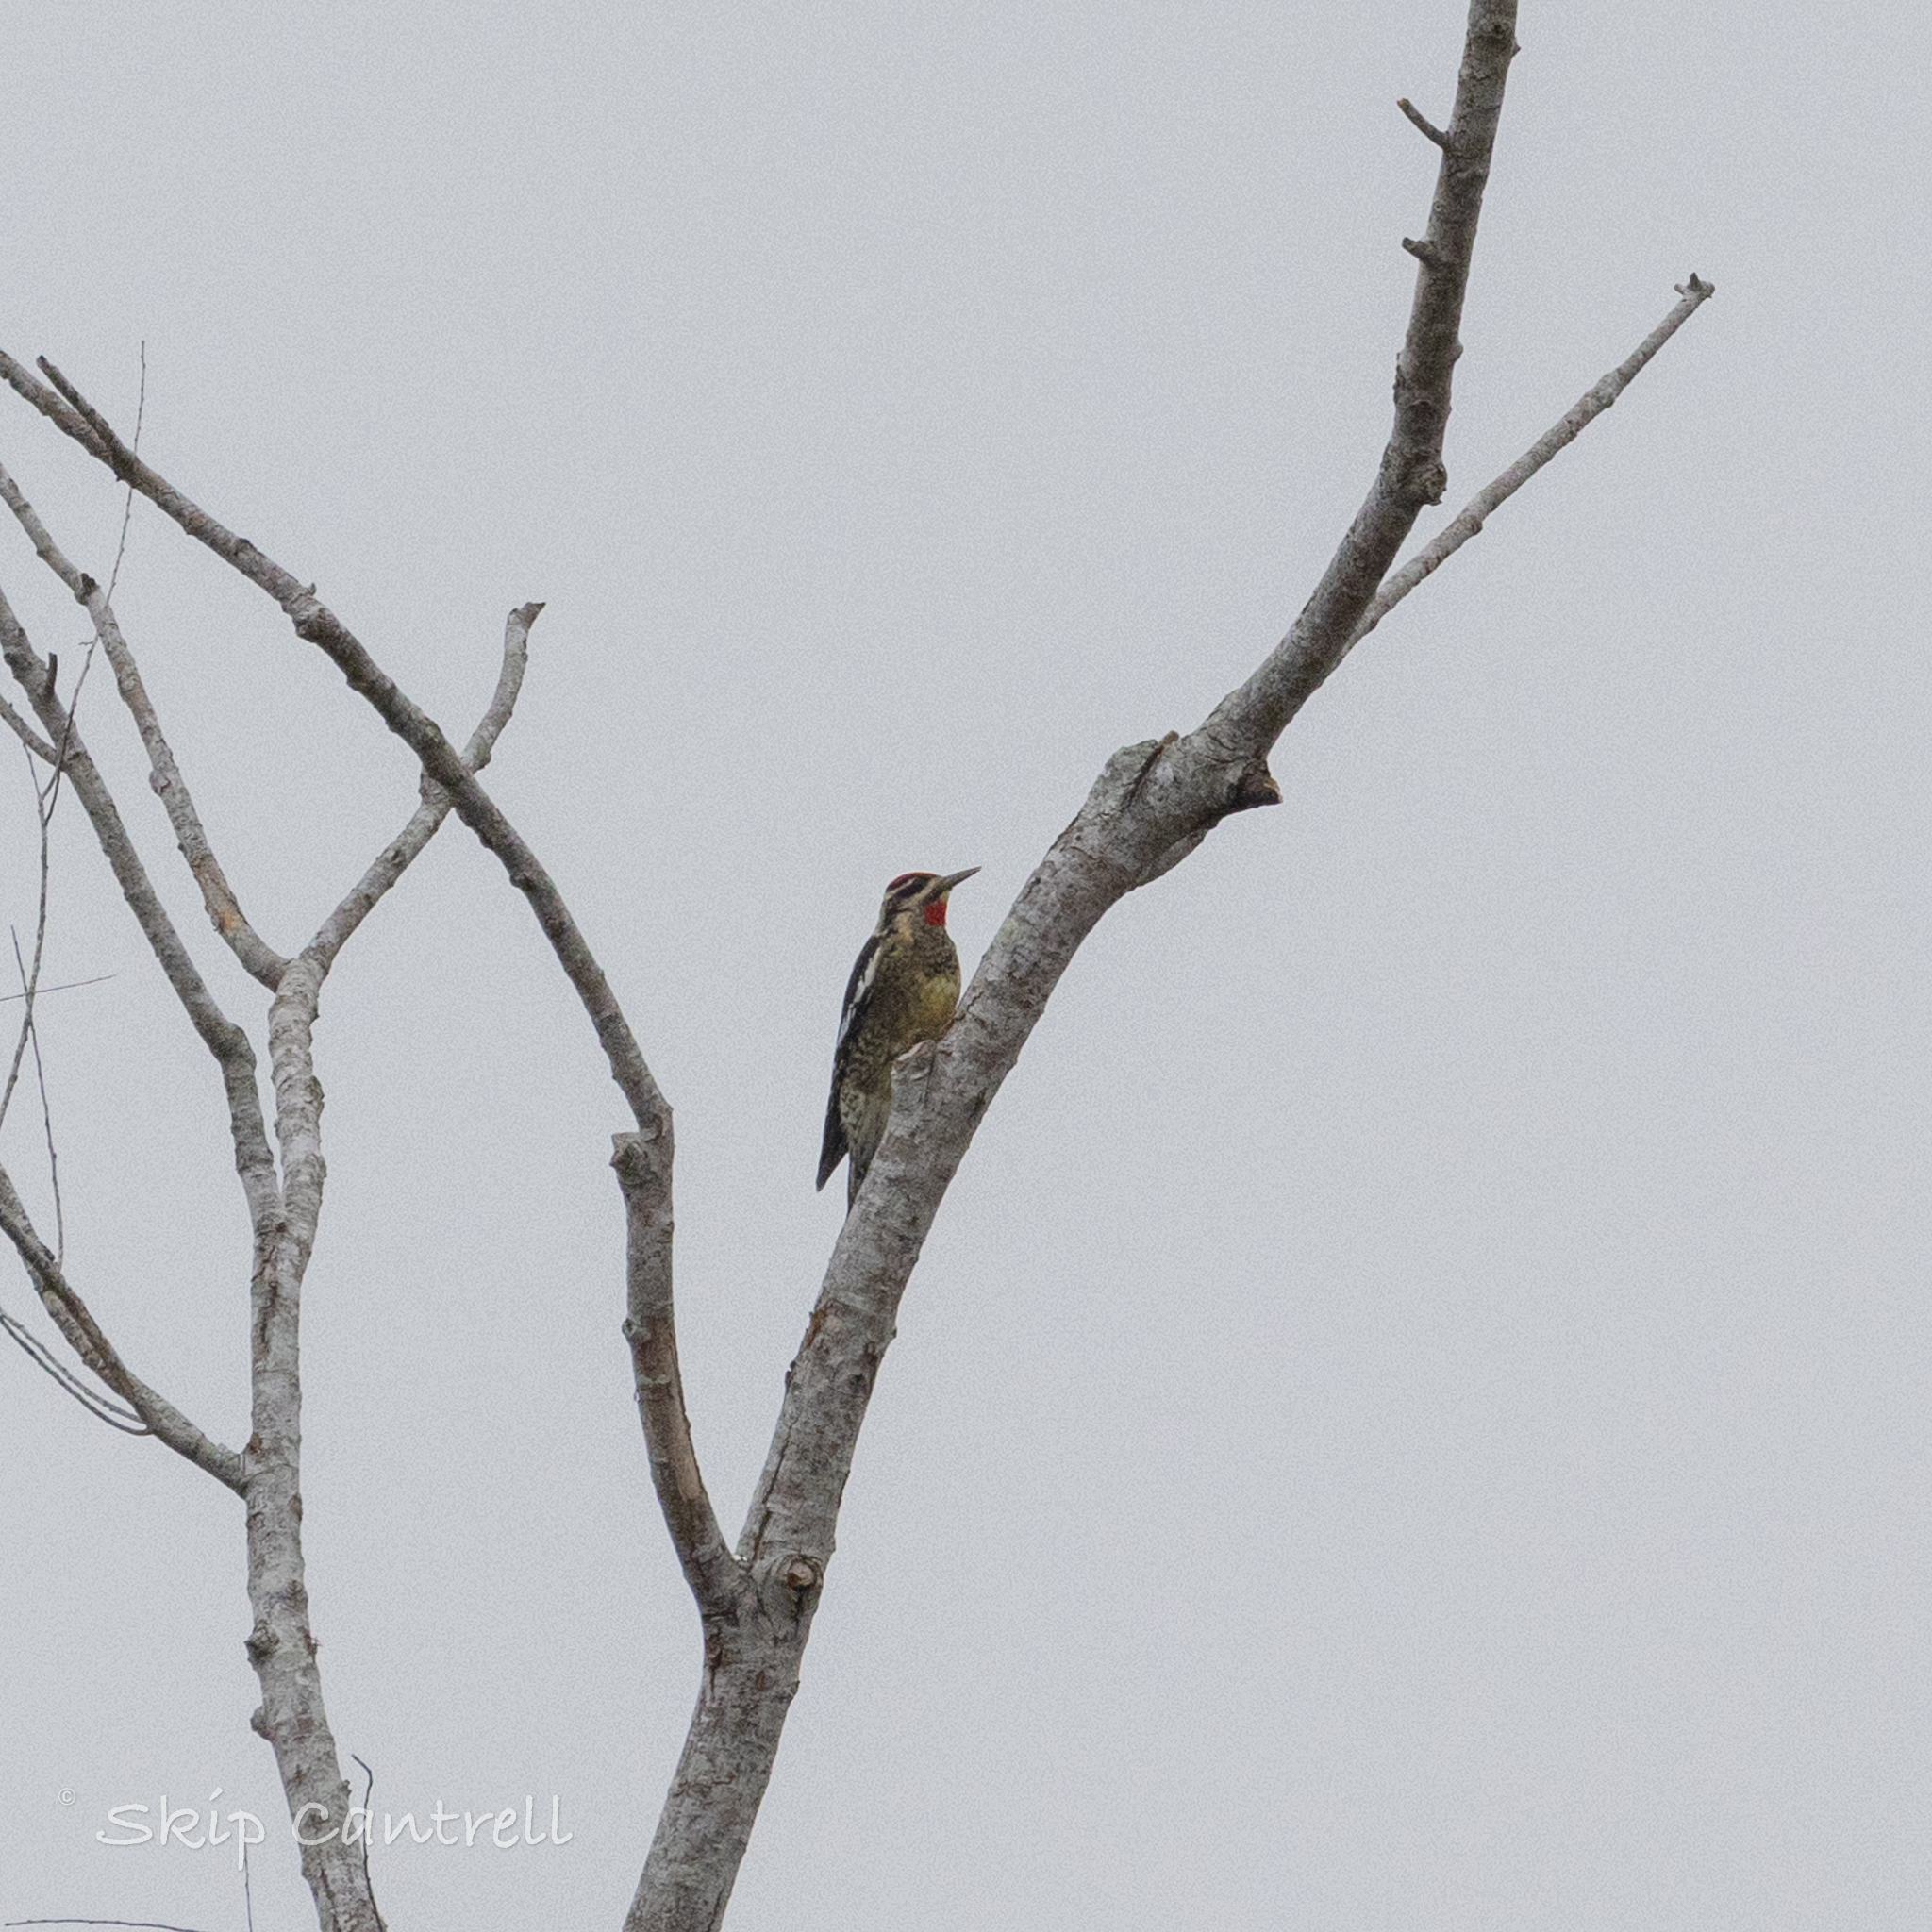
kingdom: Animalia
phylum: Chordata
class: Aves
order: Piciformes
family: Picidae
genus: Sphyrapicus
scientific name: Sphyrapicus nuchalis
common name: Red-naped sapsucker
